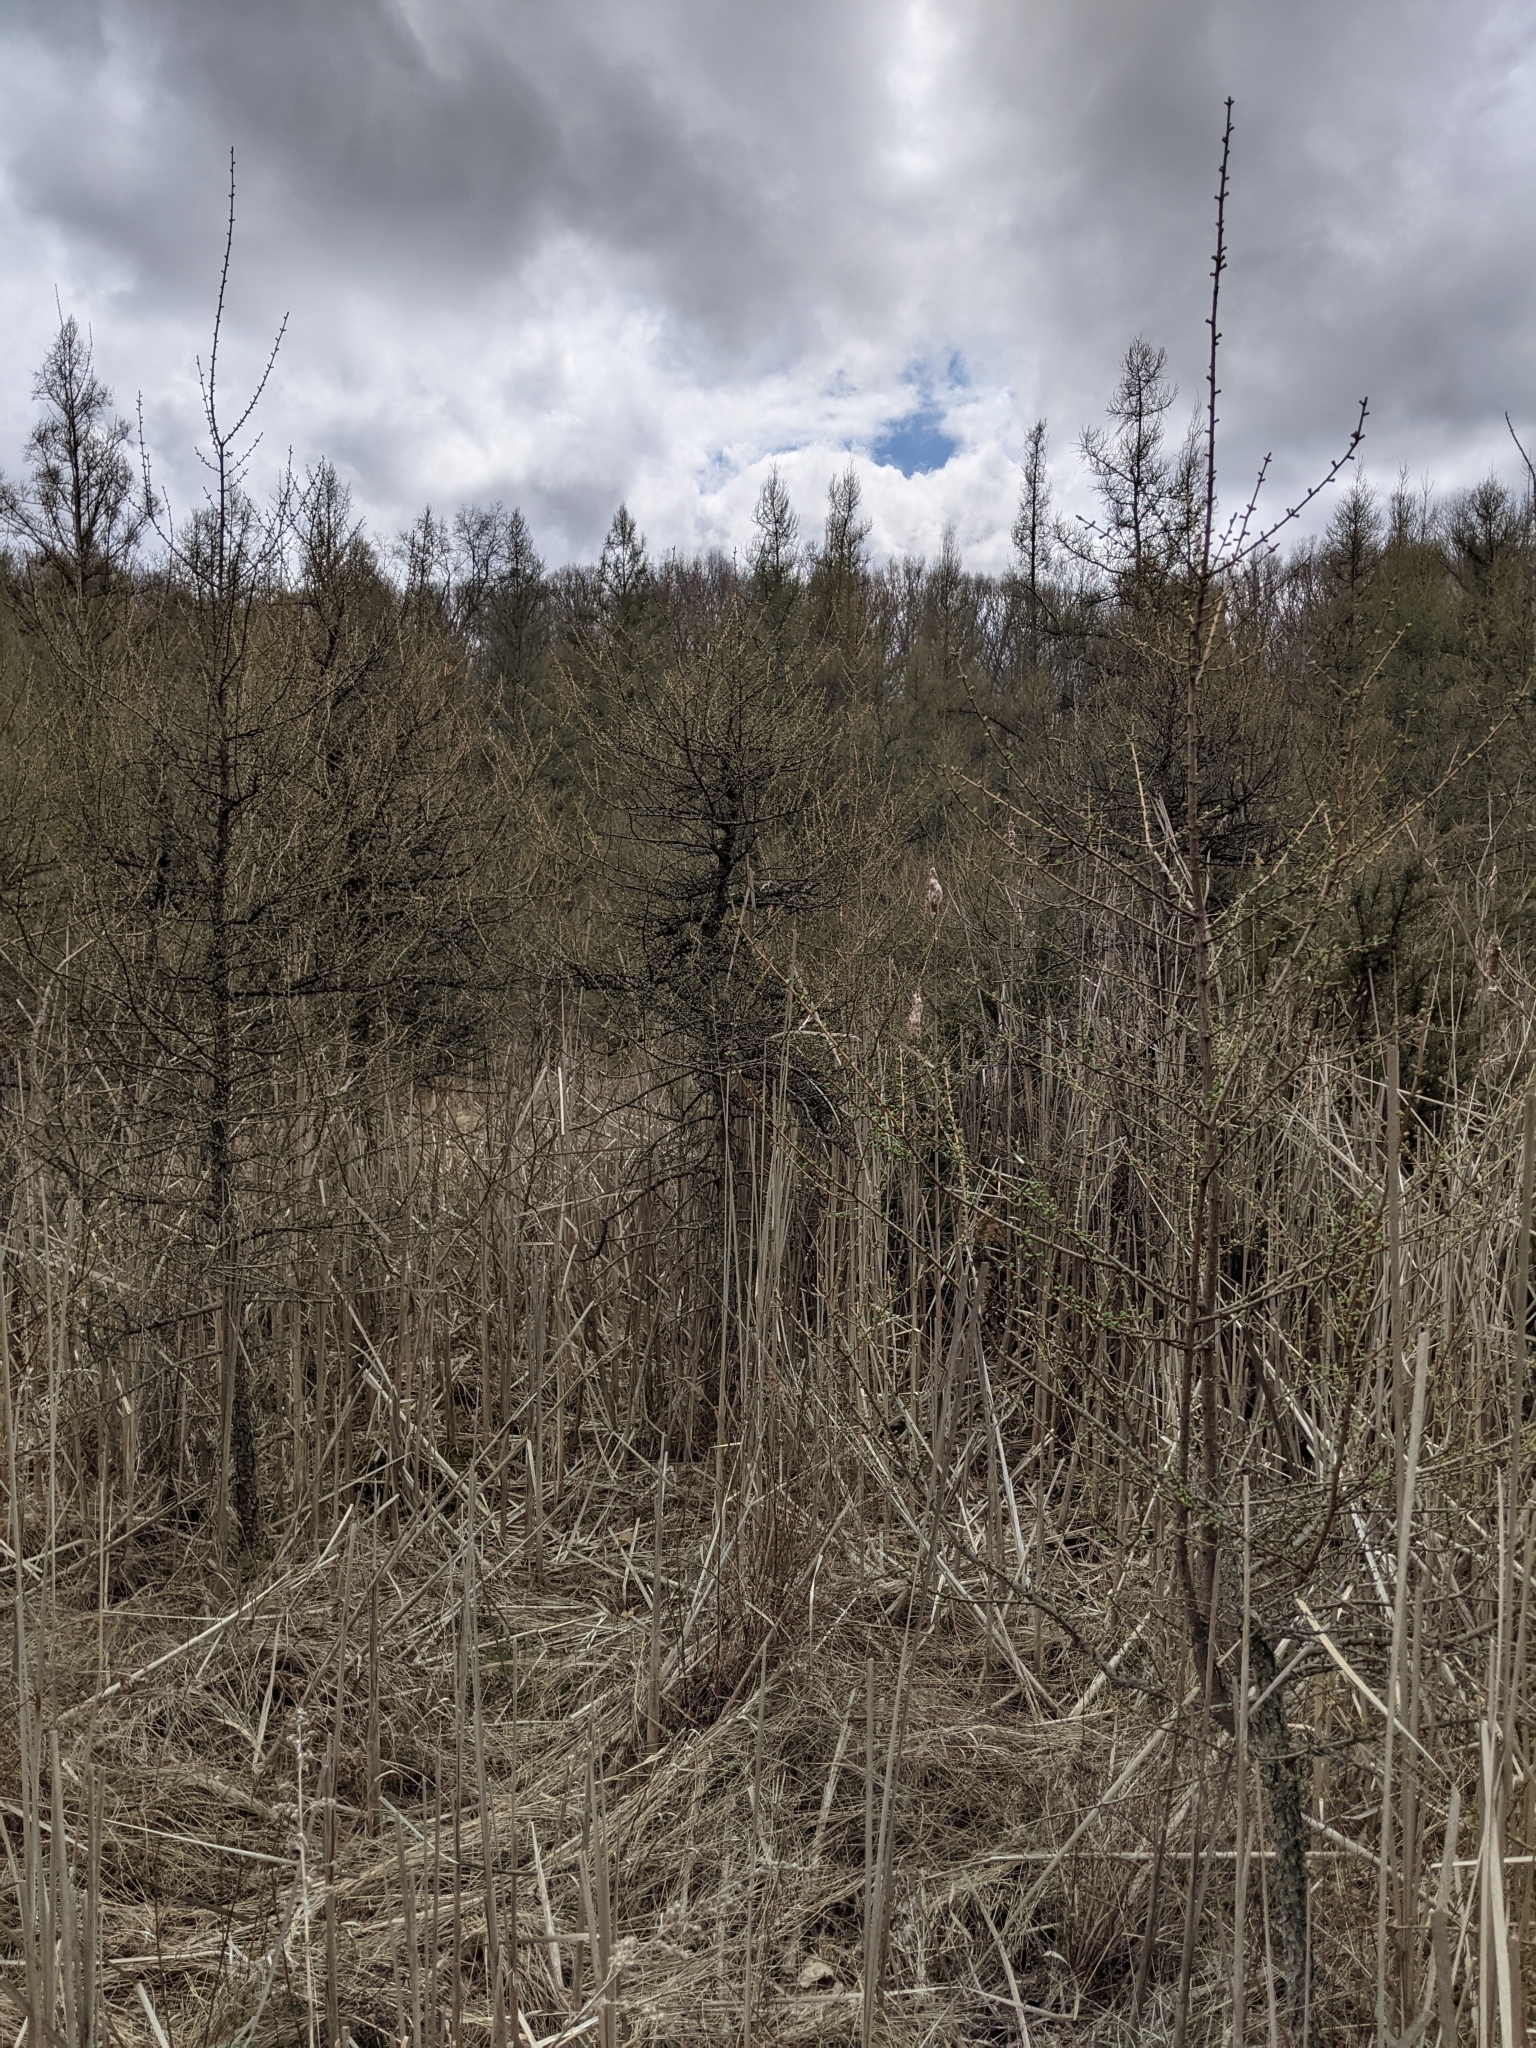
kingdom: Plantae
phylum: Tracheophyta
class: Pinopsida
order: Pinales
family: Pinaceae
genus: Larix
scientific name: Larix laricina
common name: American larch
